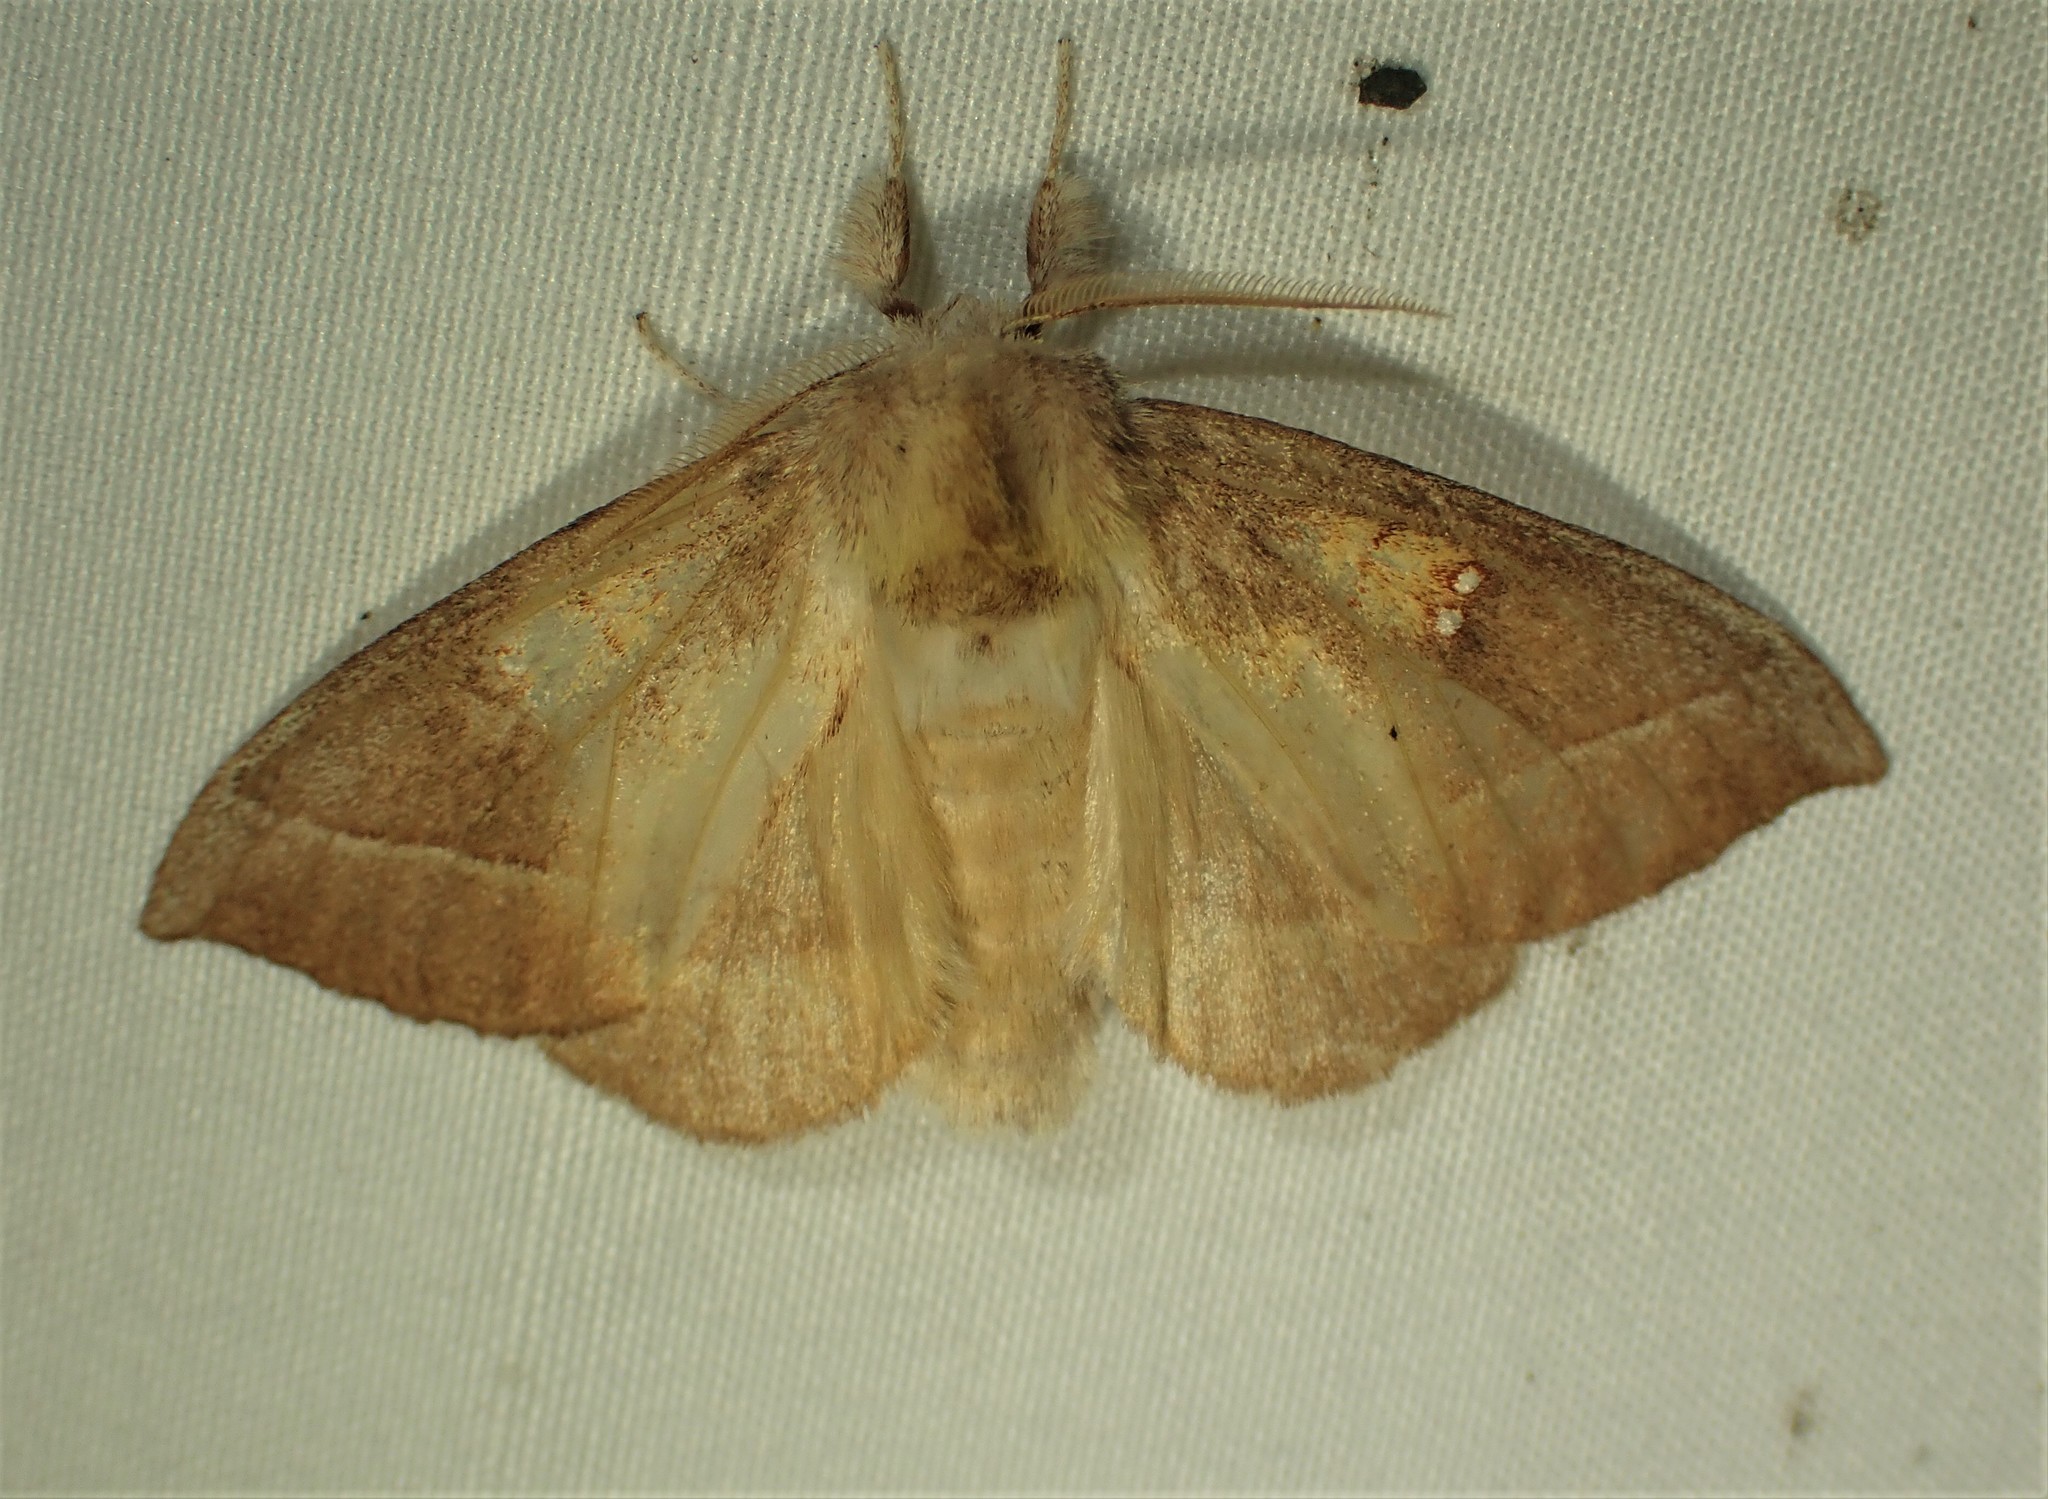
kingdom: Animalia
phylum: Arthropoda
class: Insecta
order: Lepidoptera
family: Notodontidae
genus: Nadata
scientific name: Nadata gibbosa
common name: White-dotted prominent
